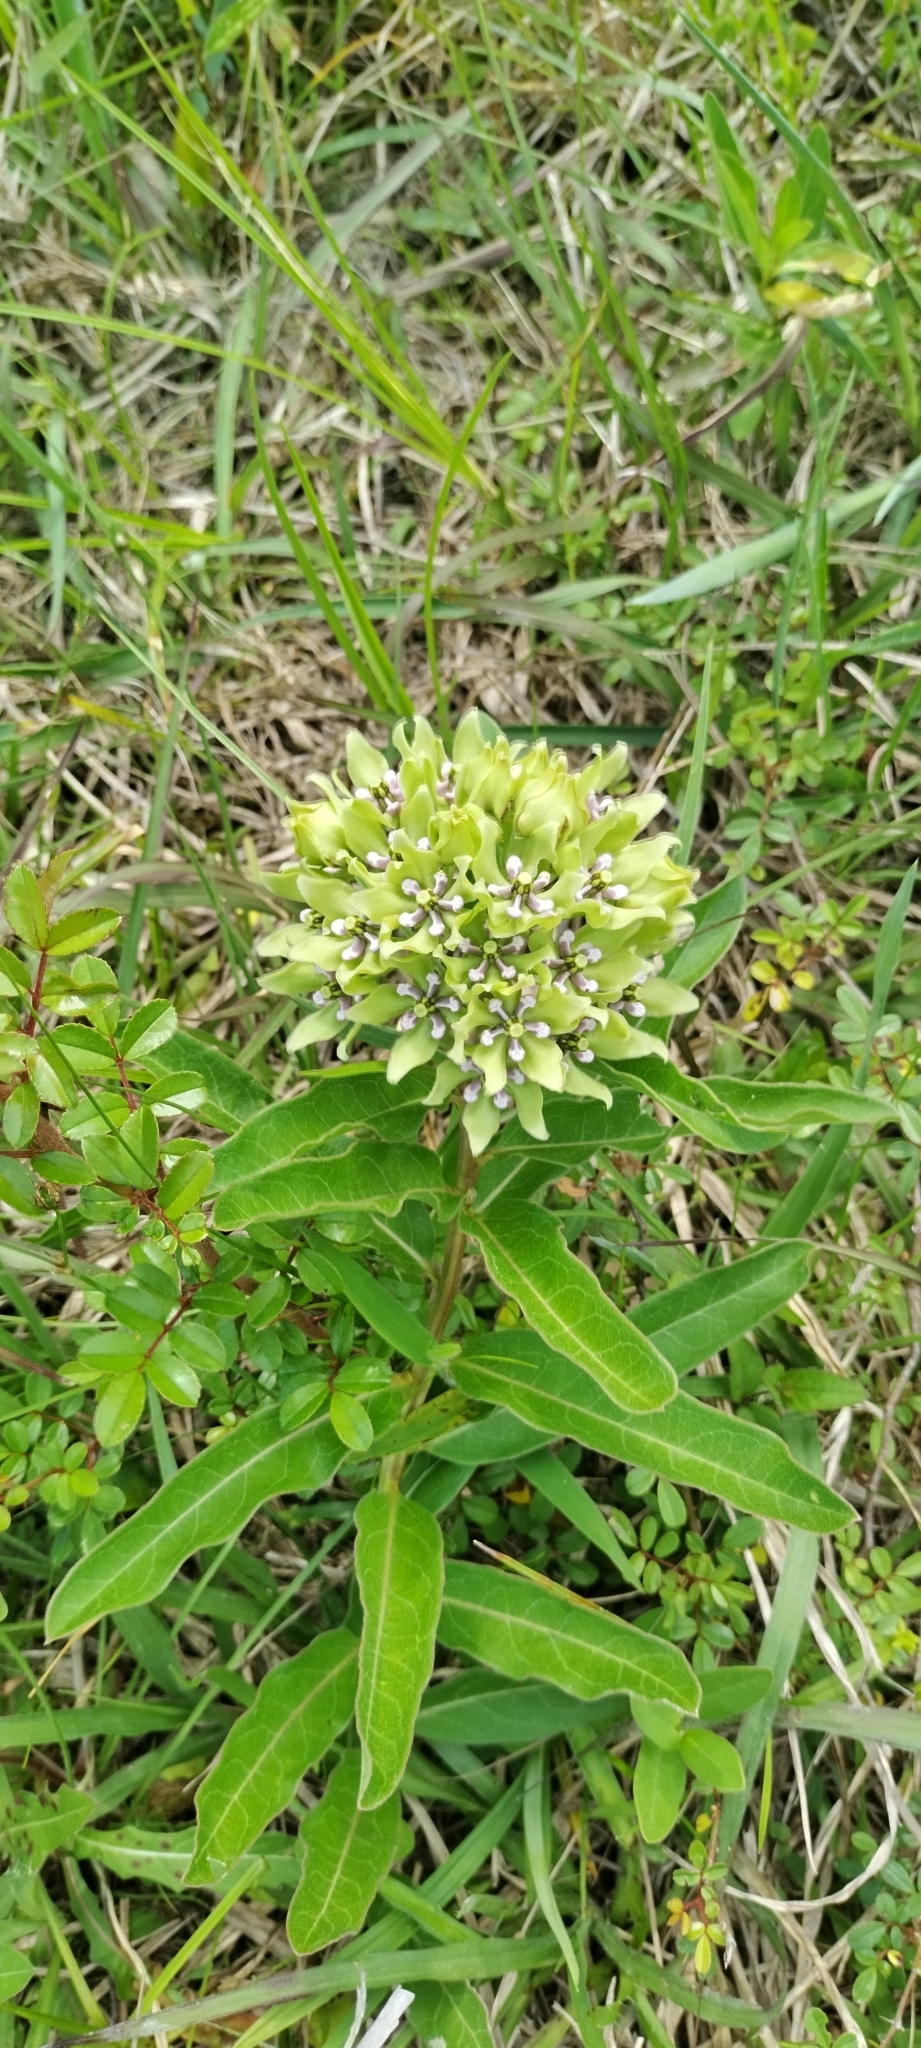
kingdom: Plantae
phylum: Tracheophyta
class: Magnoliopsida
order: Gentianales
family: Apocynaceae
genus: Asclepias
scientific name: Asclepias viridis
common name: Antelope-horns
